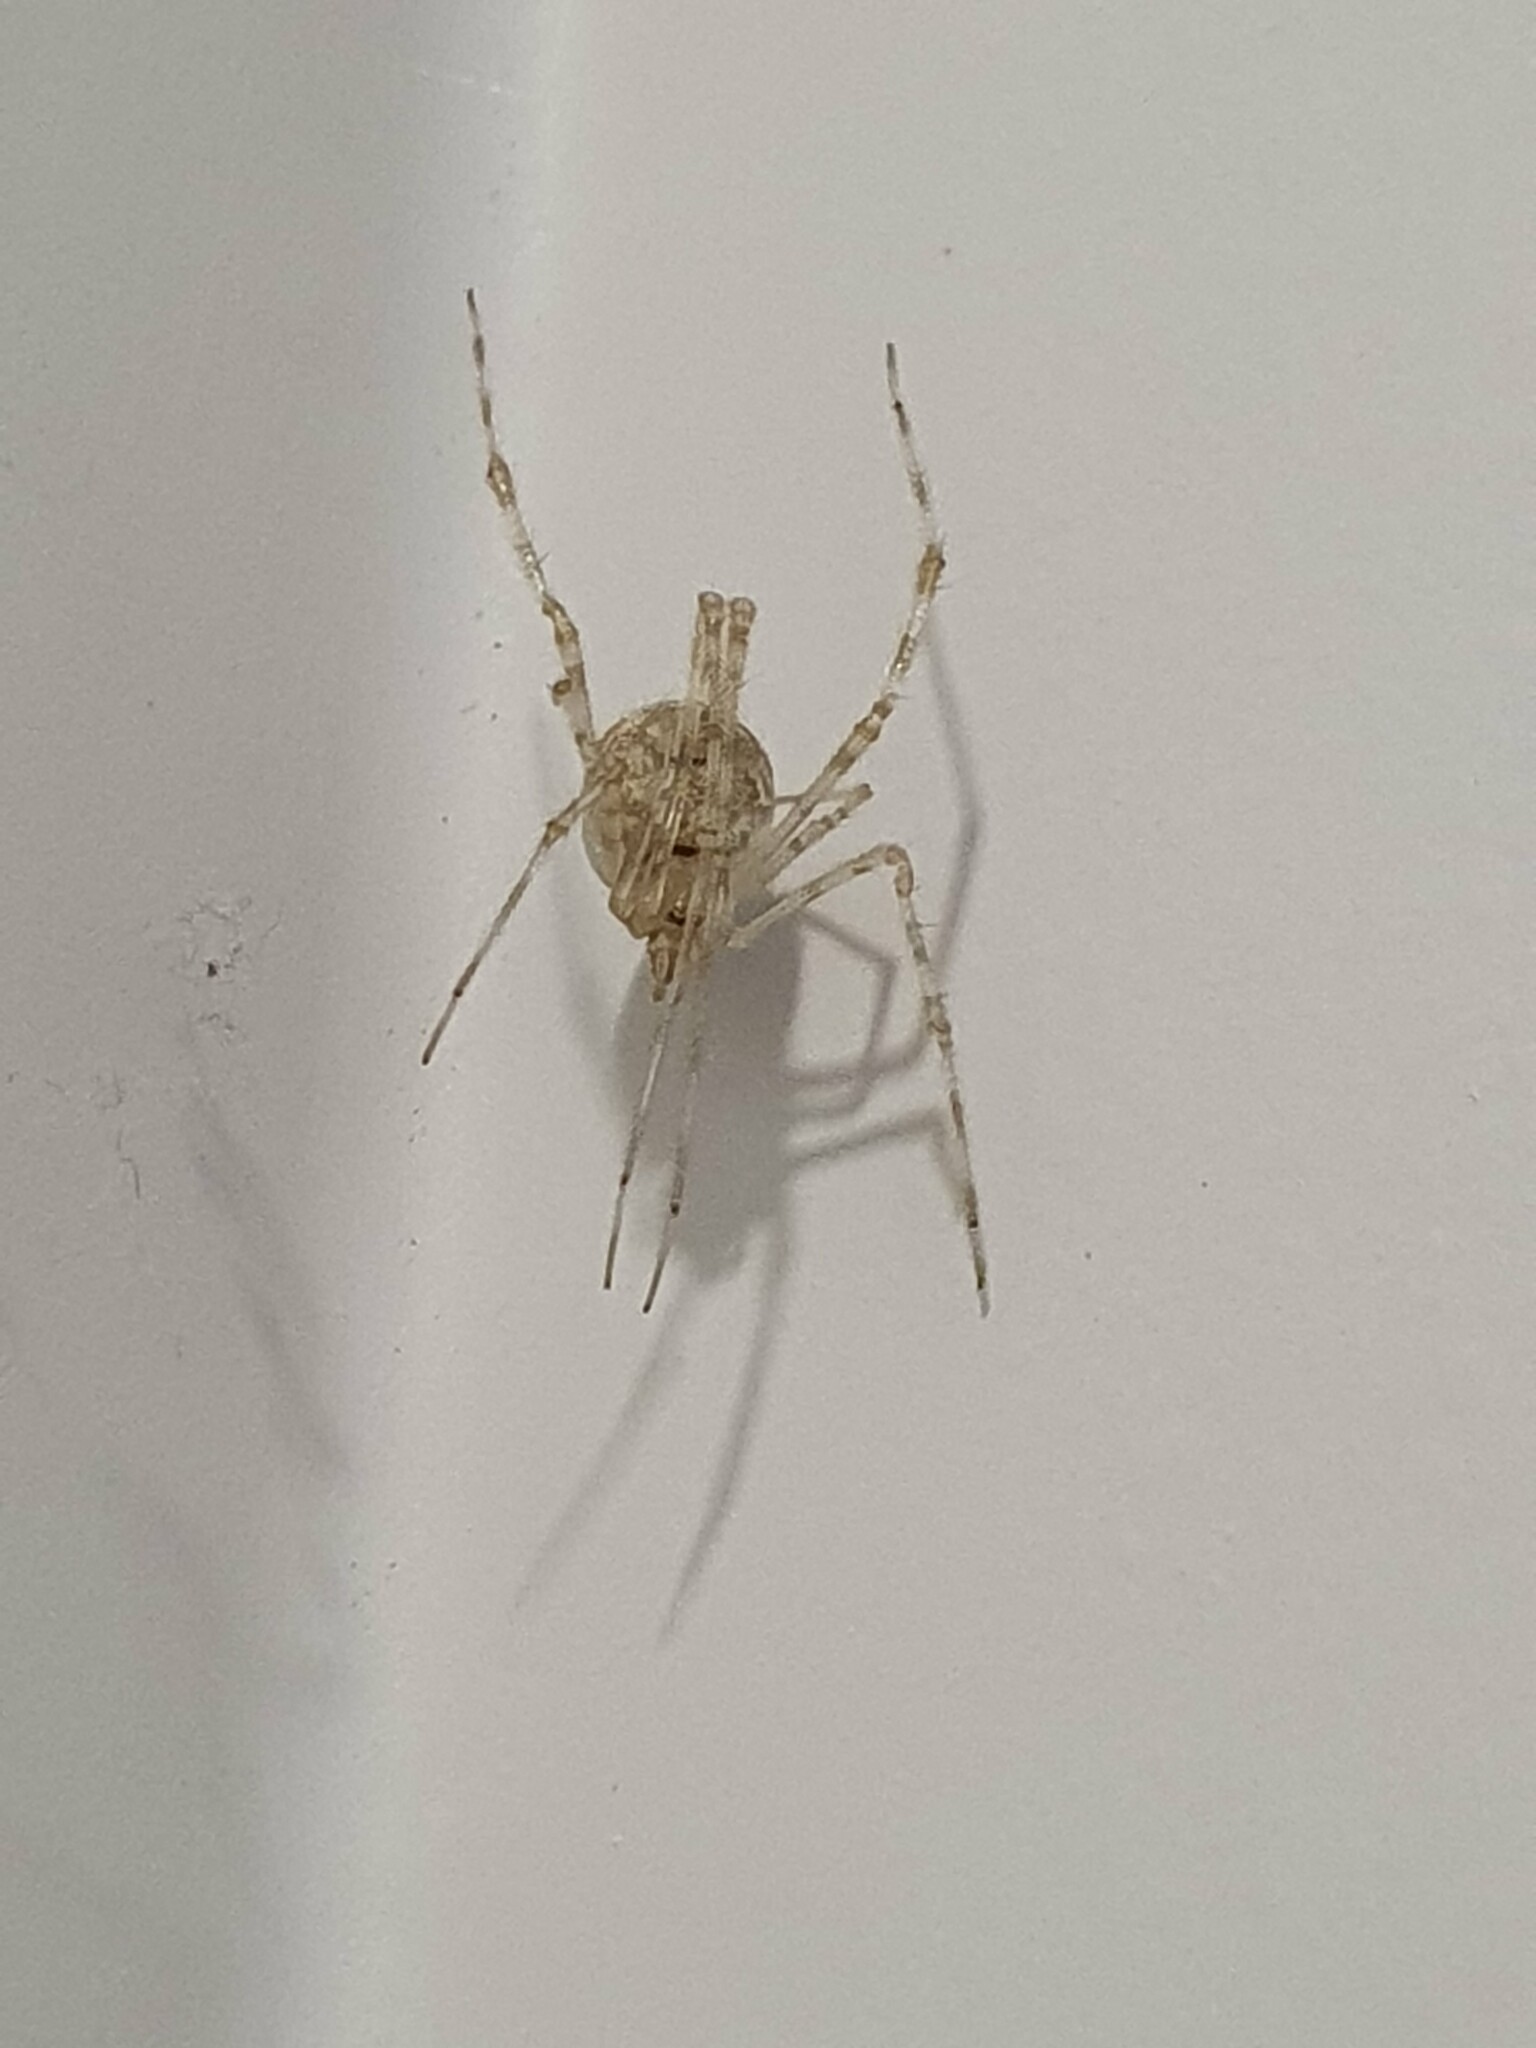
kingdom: Animalia
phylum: Arthropoda
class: Arachnida
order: Araneae
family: Theridiidae
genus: Cryptachaea
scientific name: Cryptachaea gigantipes
